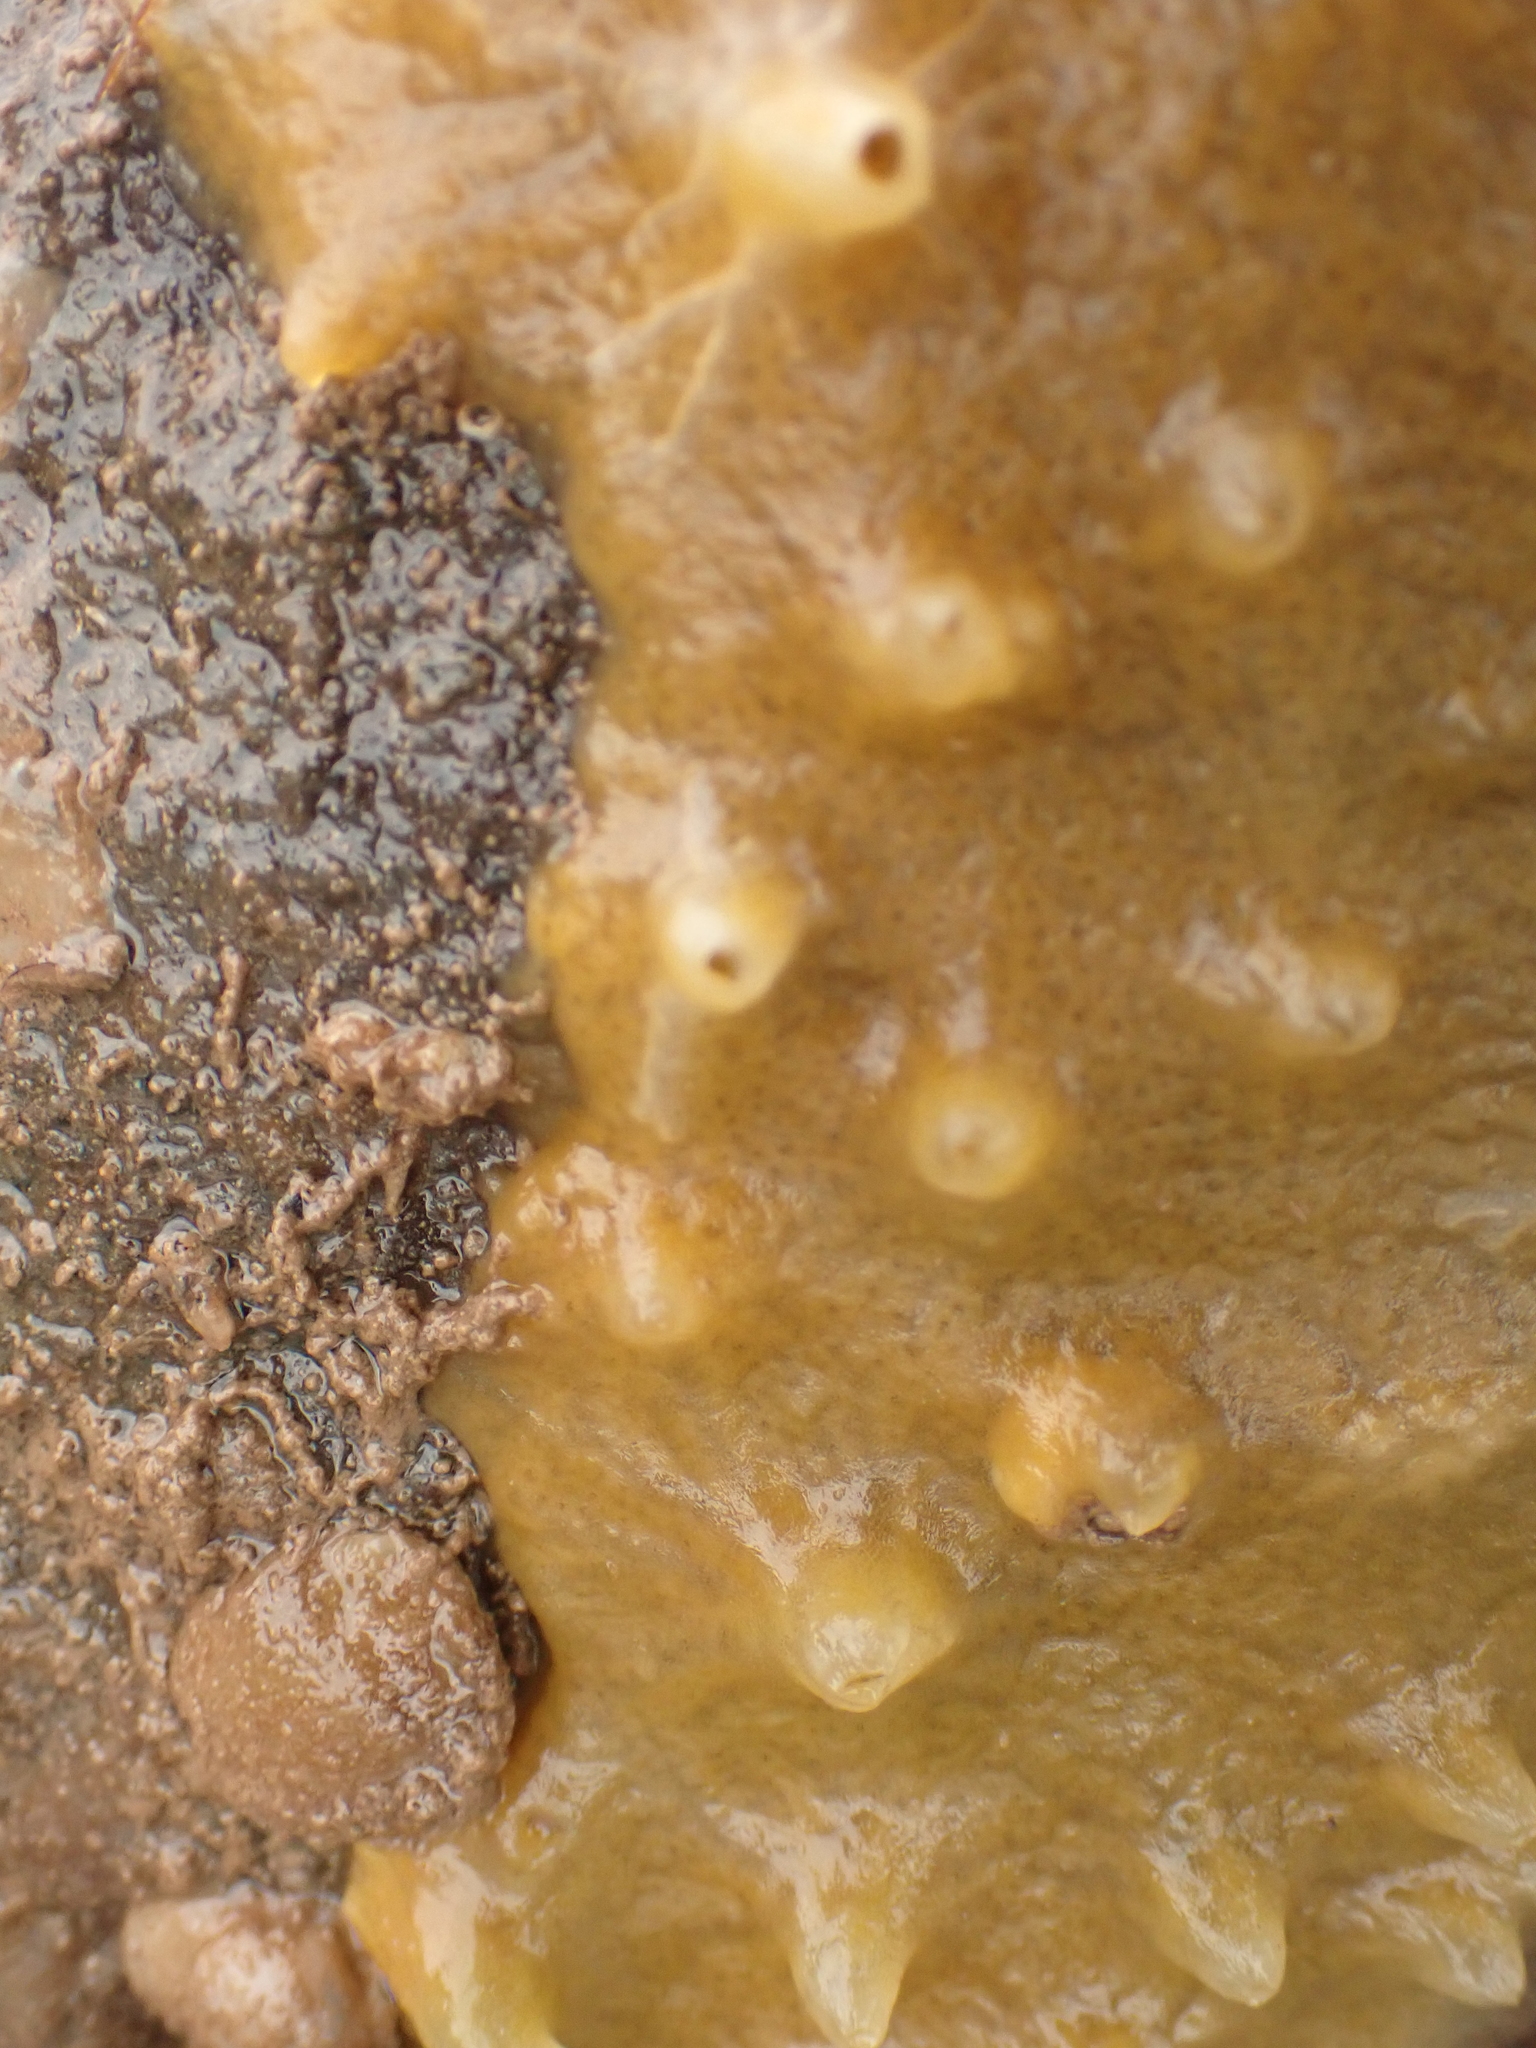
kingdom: Animalia
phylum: Porifera
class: Demospongiae
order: Suberitida
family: Halichondriidae
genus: Halichondria
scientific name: Halichondria panicea
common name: Breadcrumb sponge
